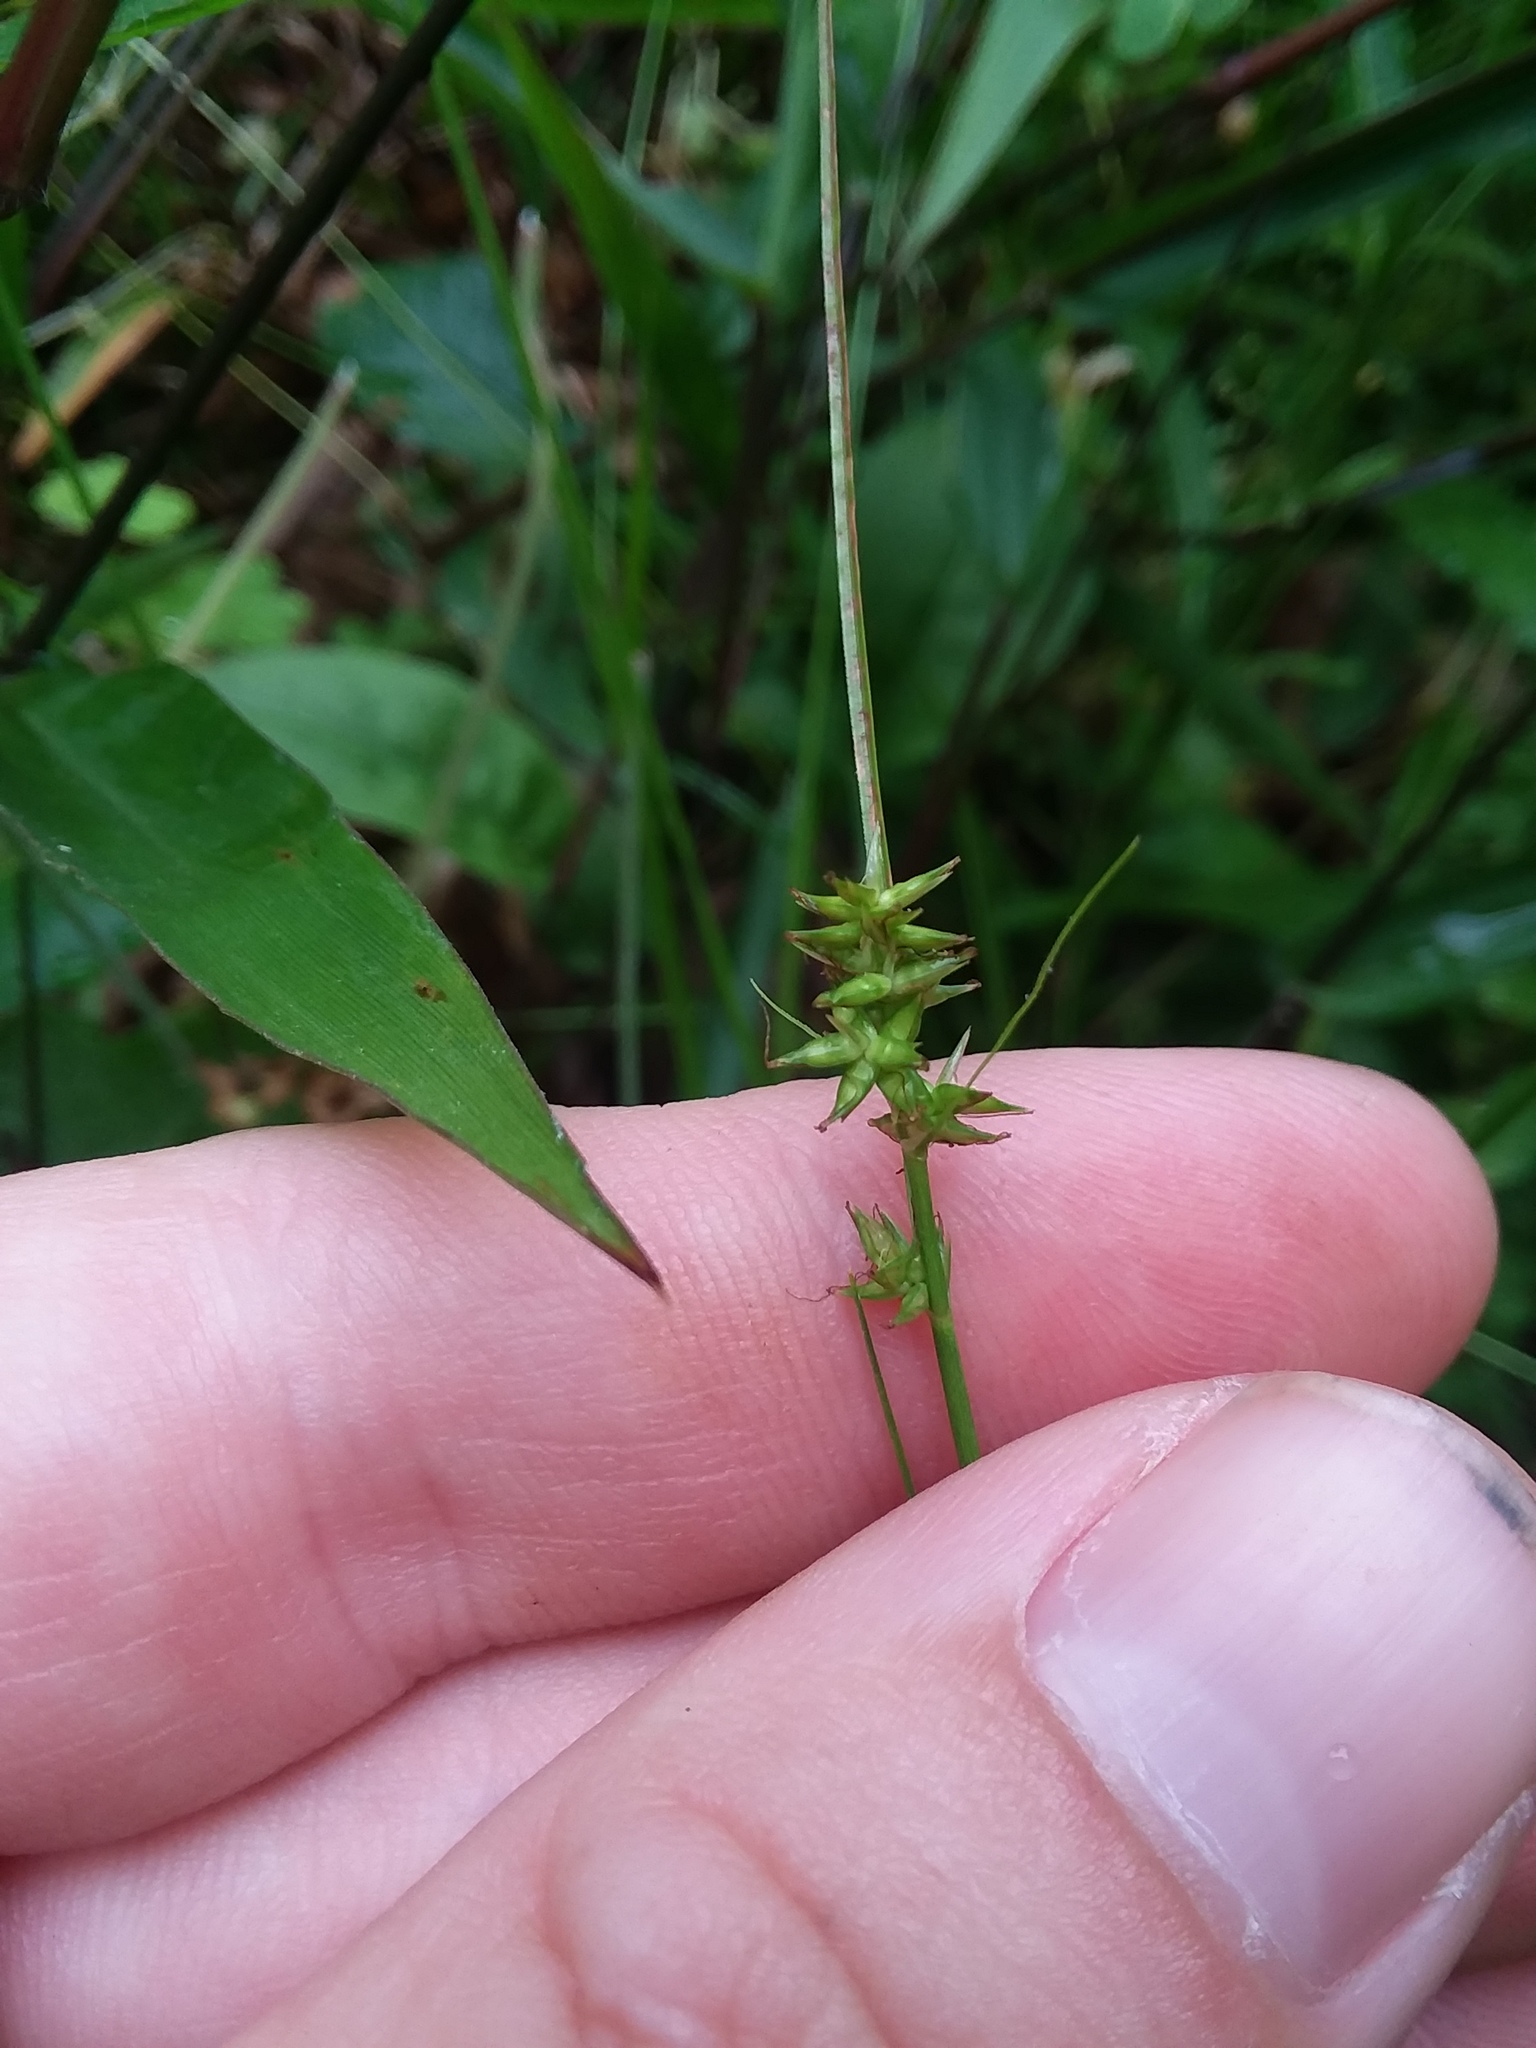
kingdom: Plantae
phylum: Tracheophyta
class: Liliopsida
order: Poales
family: Cyperaceae
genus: Carex
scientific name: Carex retroflexa
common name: Reflexed sedge
